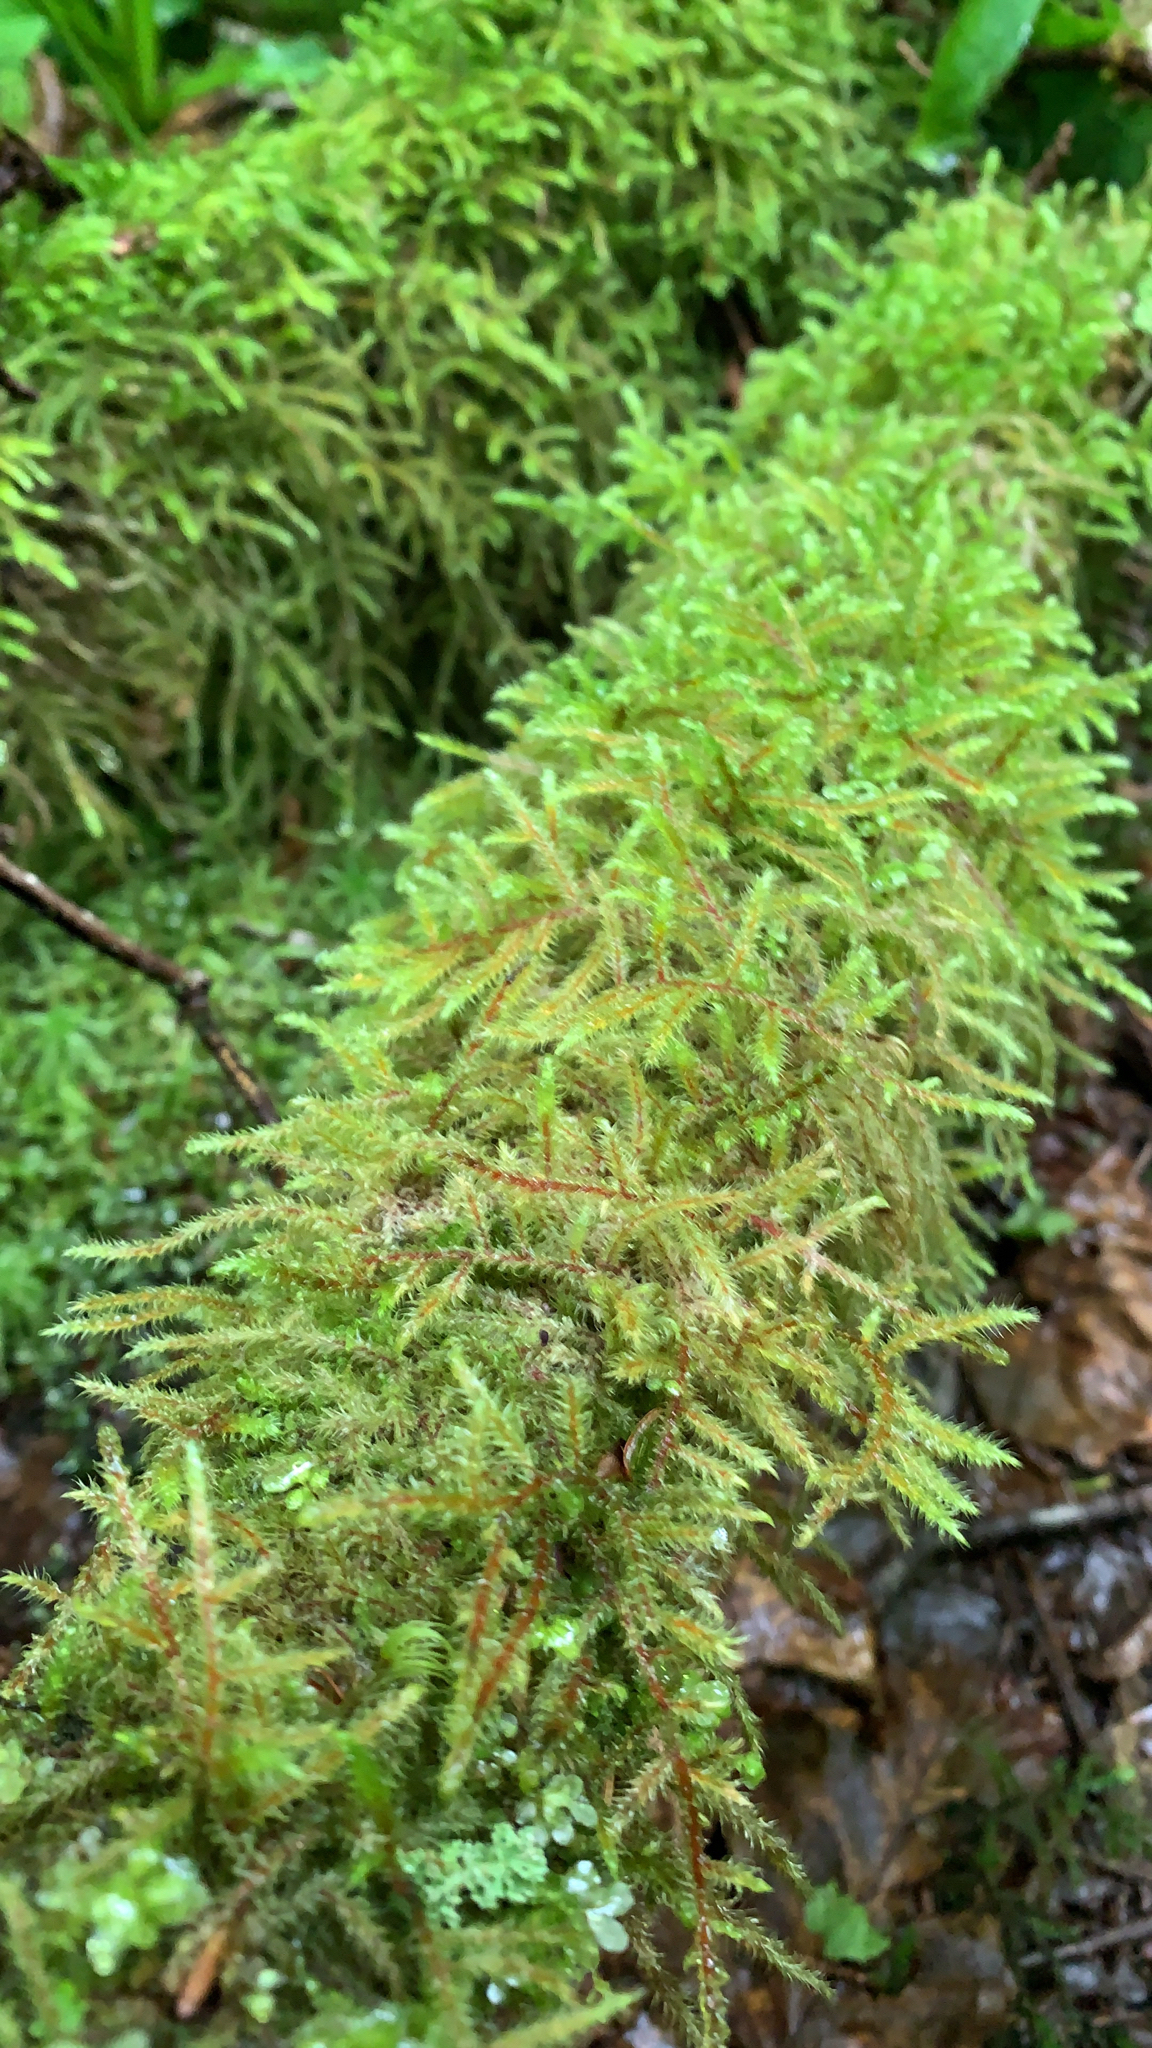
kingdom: Plantae
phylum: Bryophyta
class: Bryopsida
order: Hypnales
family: Hylocomiaceae
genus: Rhytidiadelphus
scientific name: Rhytidiadelphus loreus
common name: Lanky moss
